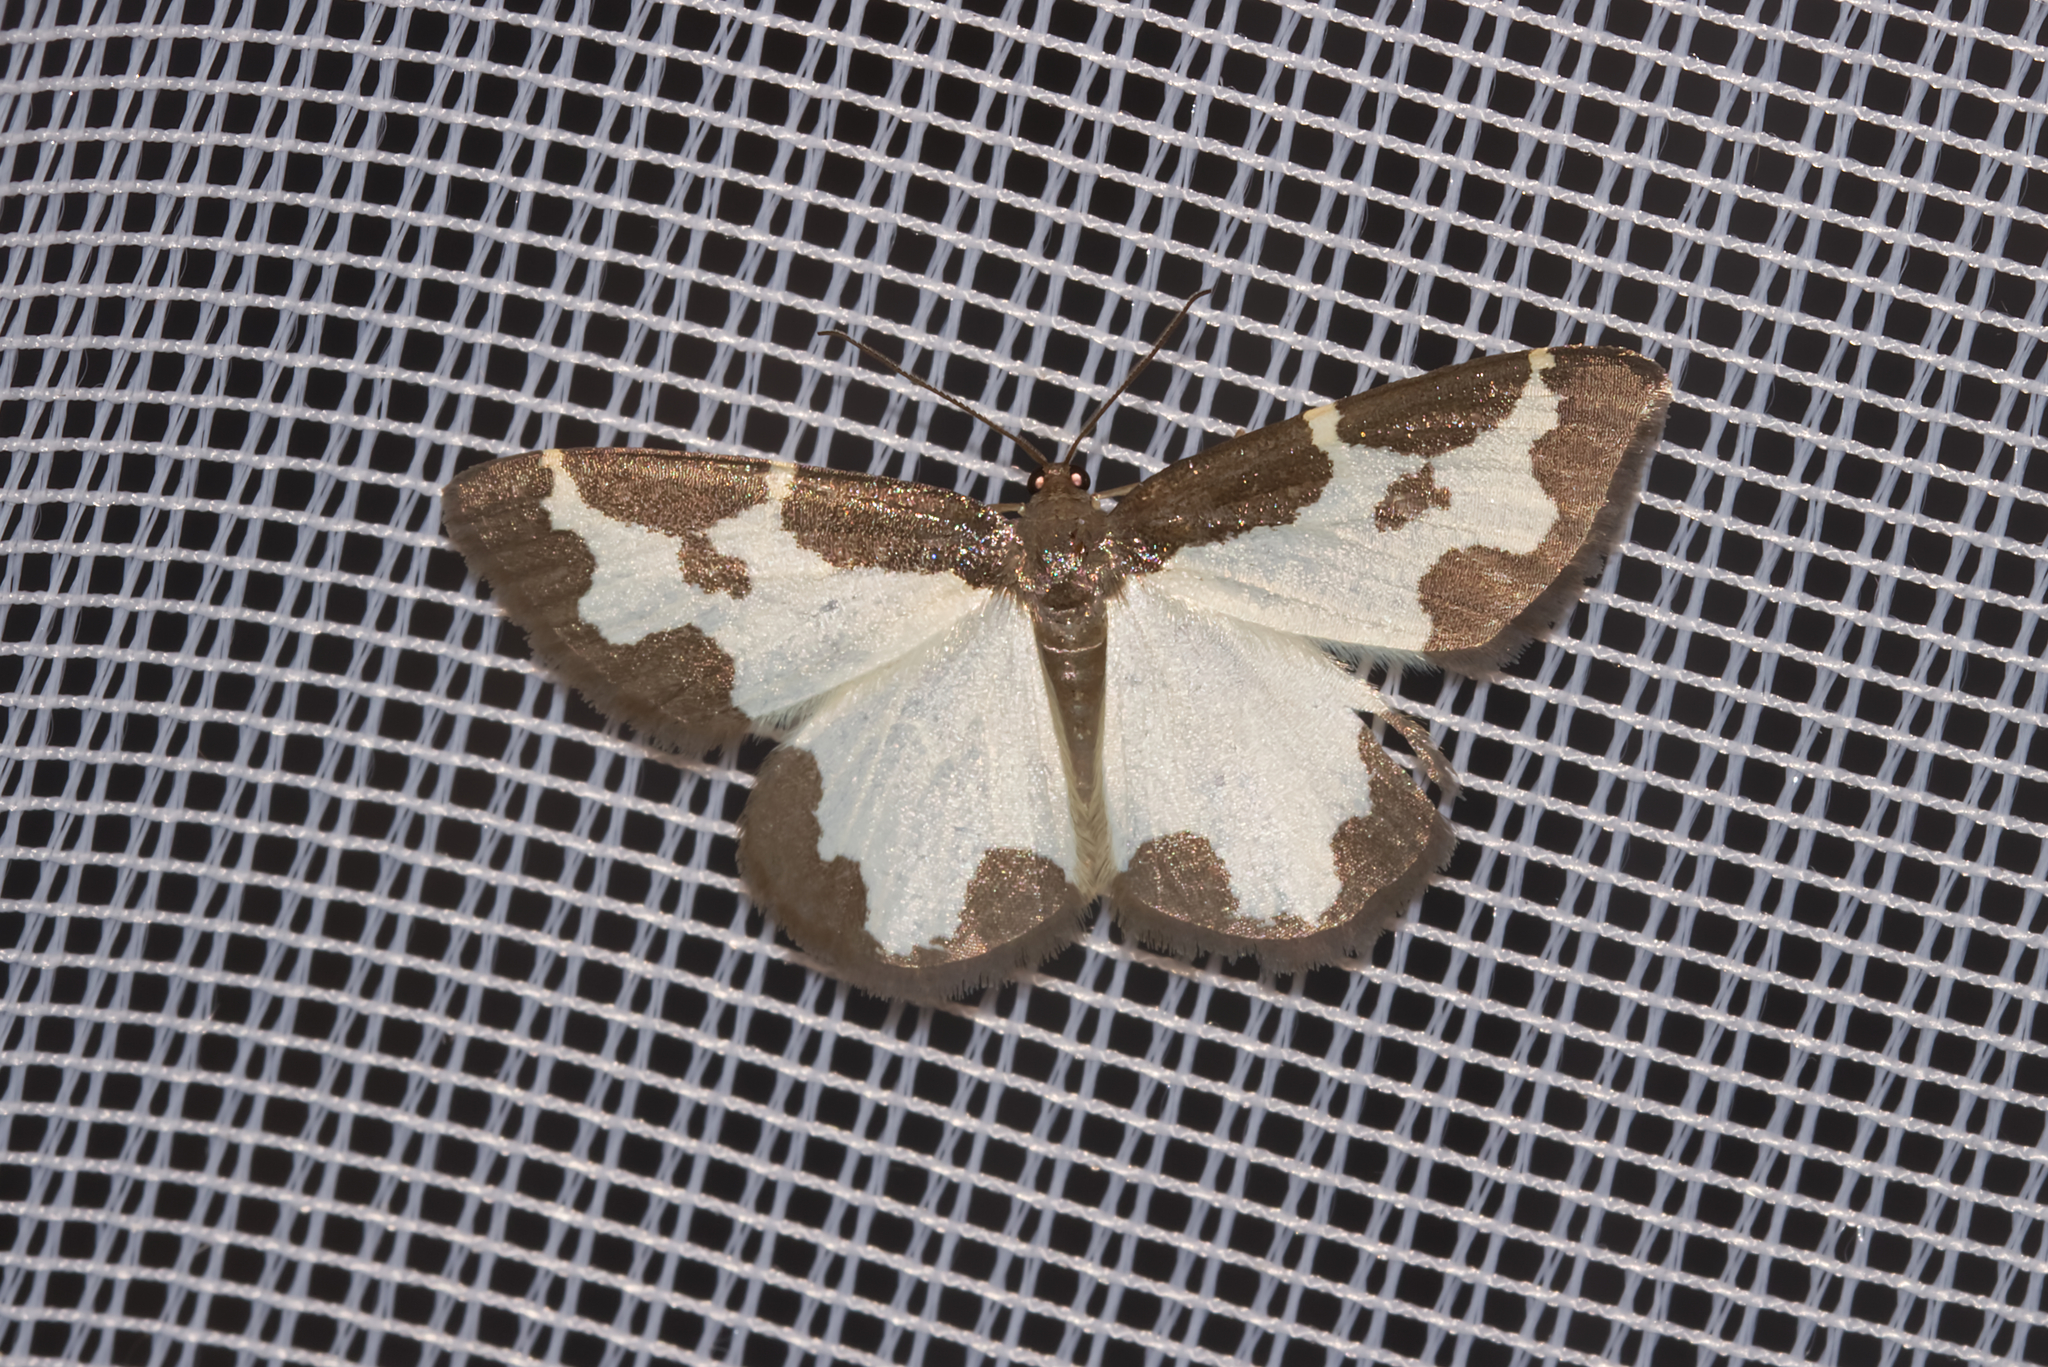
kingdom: Animalia
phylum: Arthropoda
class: Insecta
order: Lepidoptera
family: Geometridae
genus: Lomaspilis
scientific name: Lomaspilis marginata
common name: Clouded border
